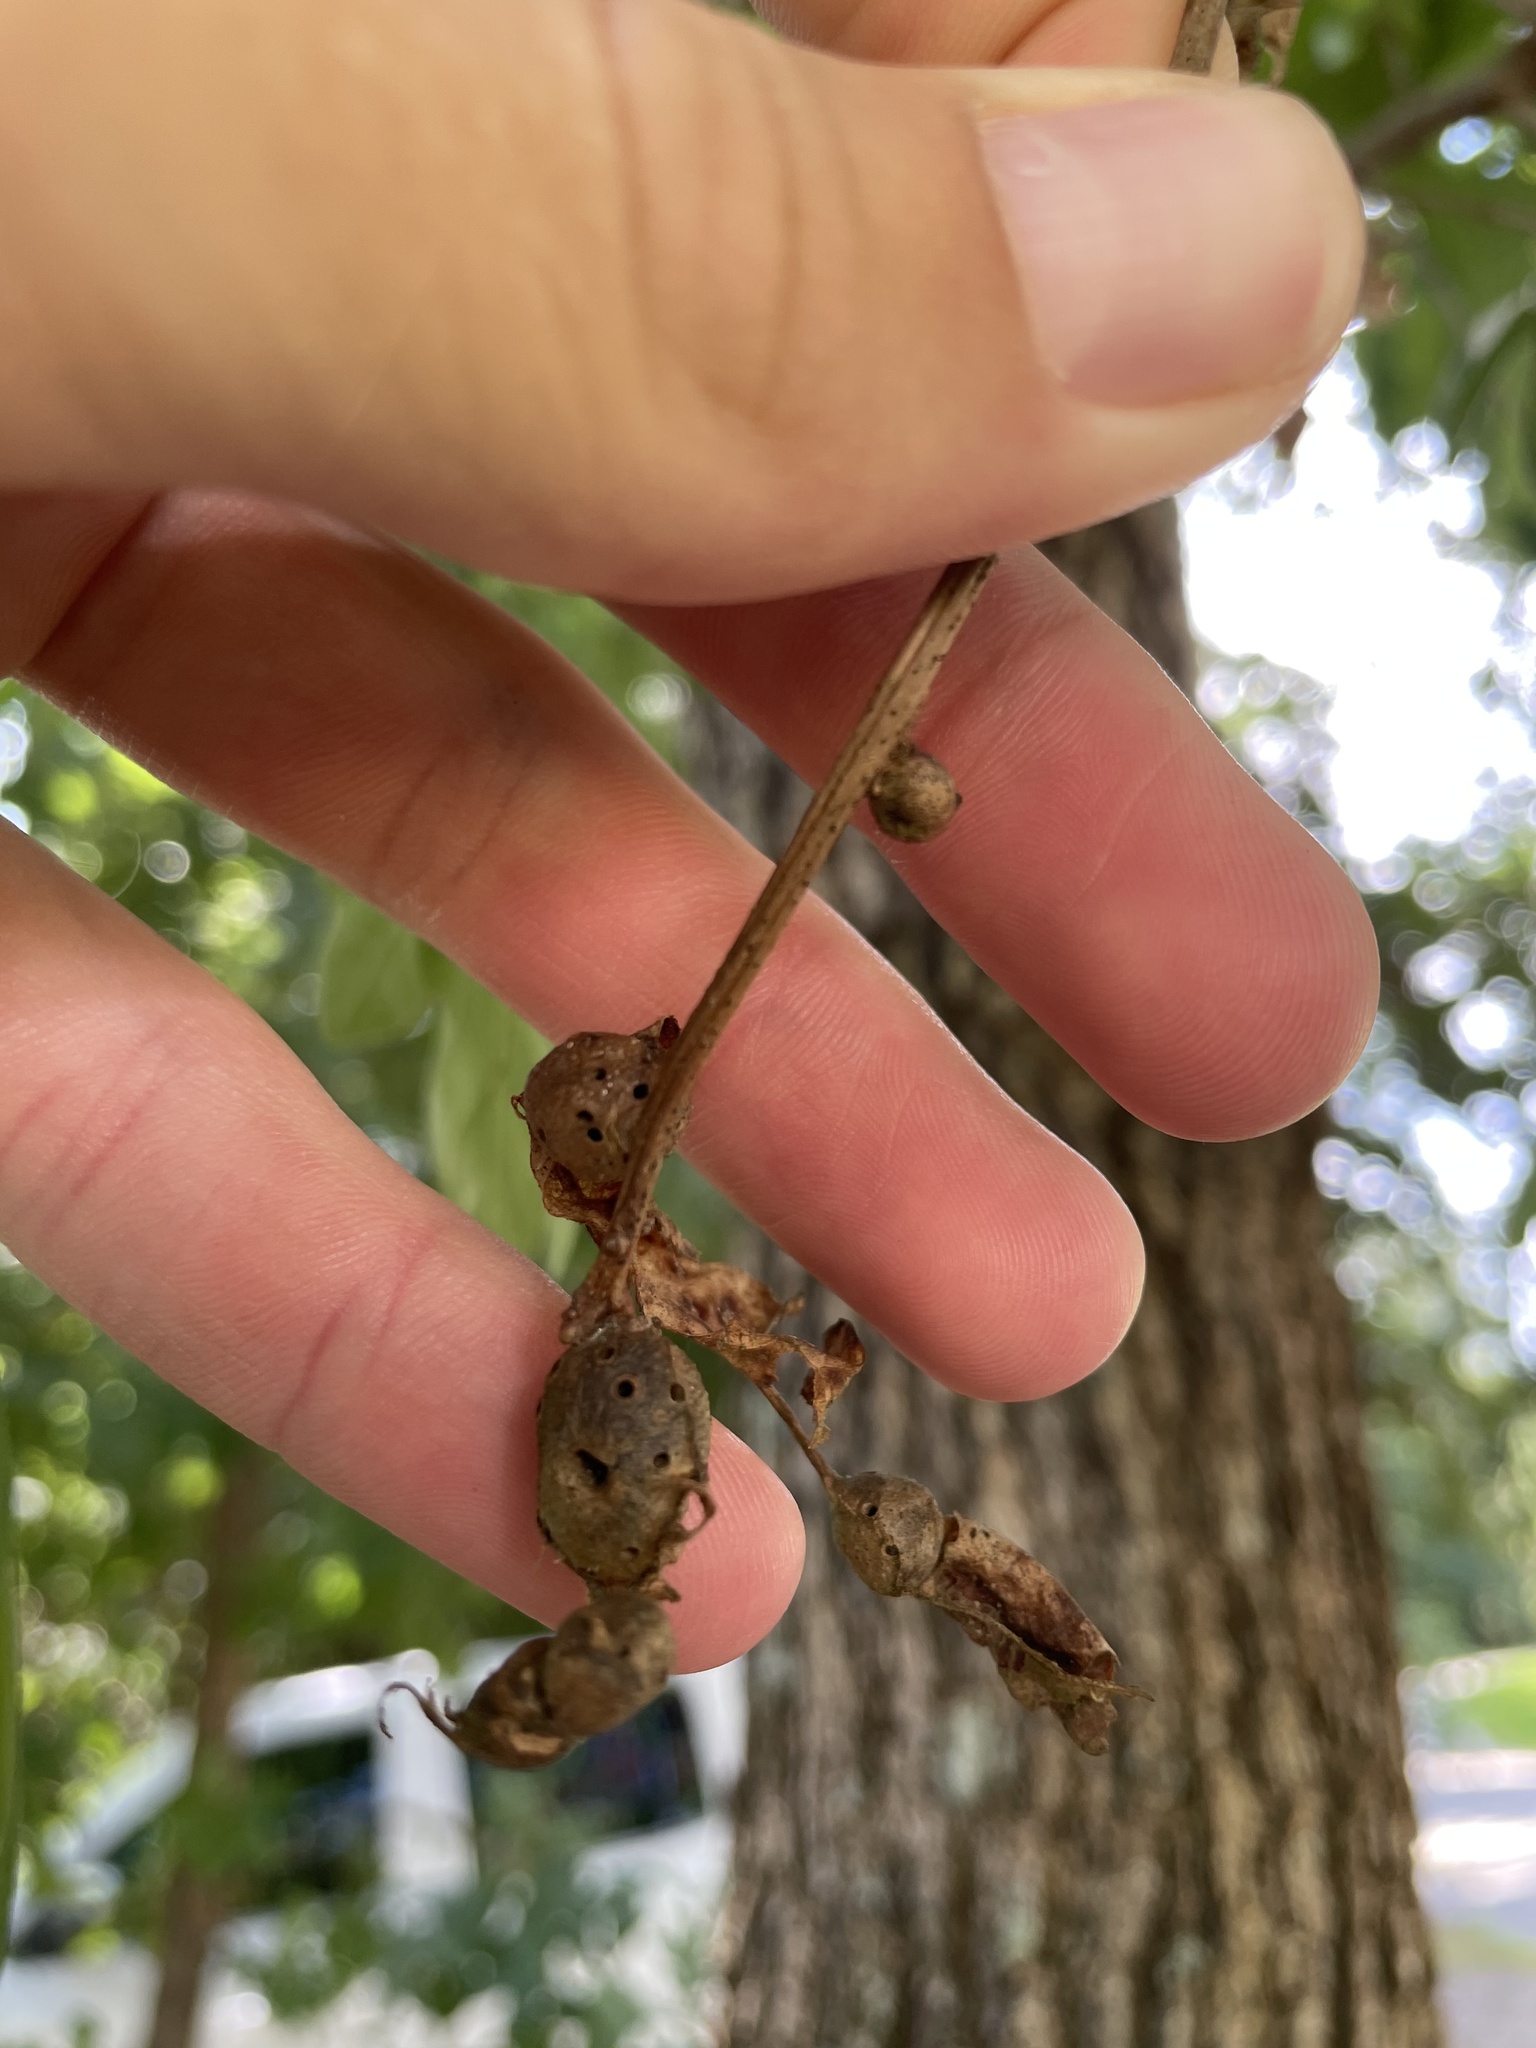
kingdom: Animalia
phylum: Arthropoda
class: Insecta
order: Hymenoptera
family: Cynipidae
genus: Andricus
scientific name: Andricus
